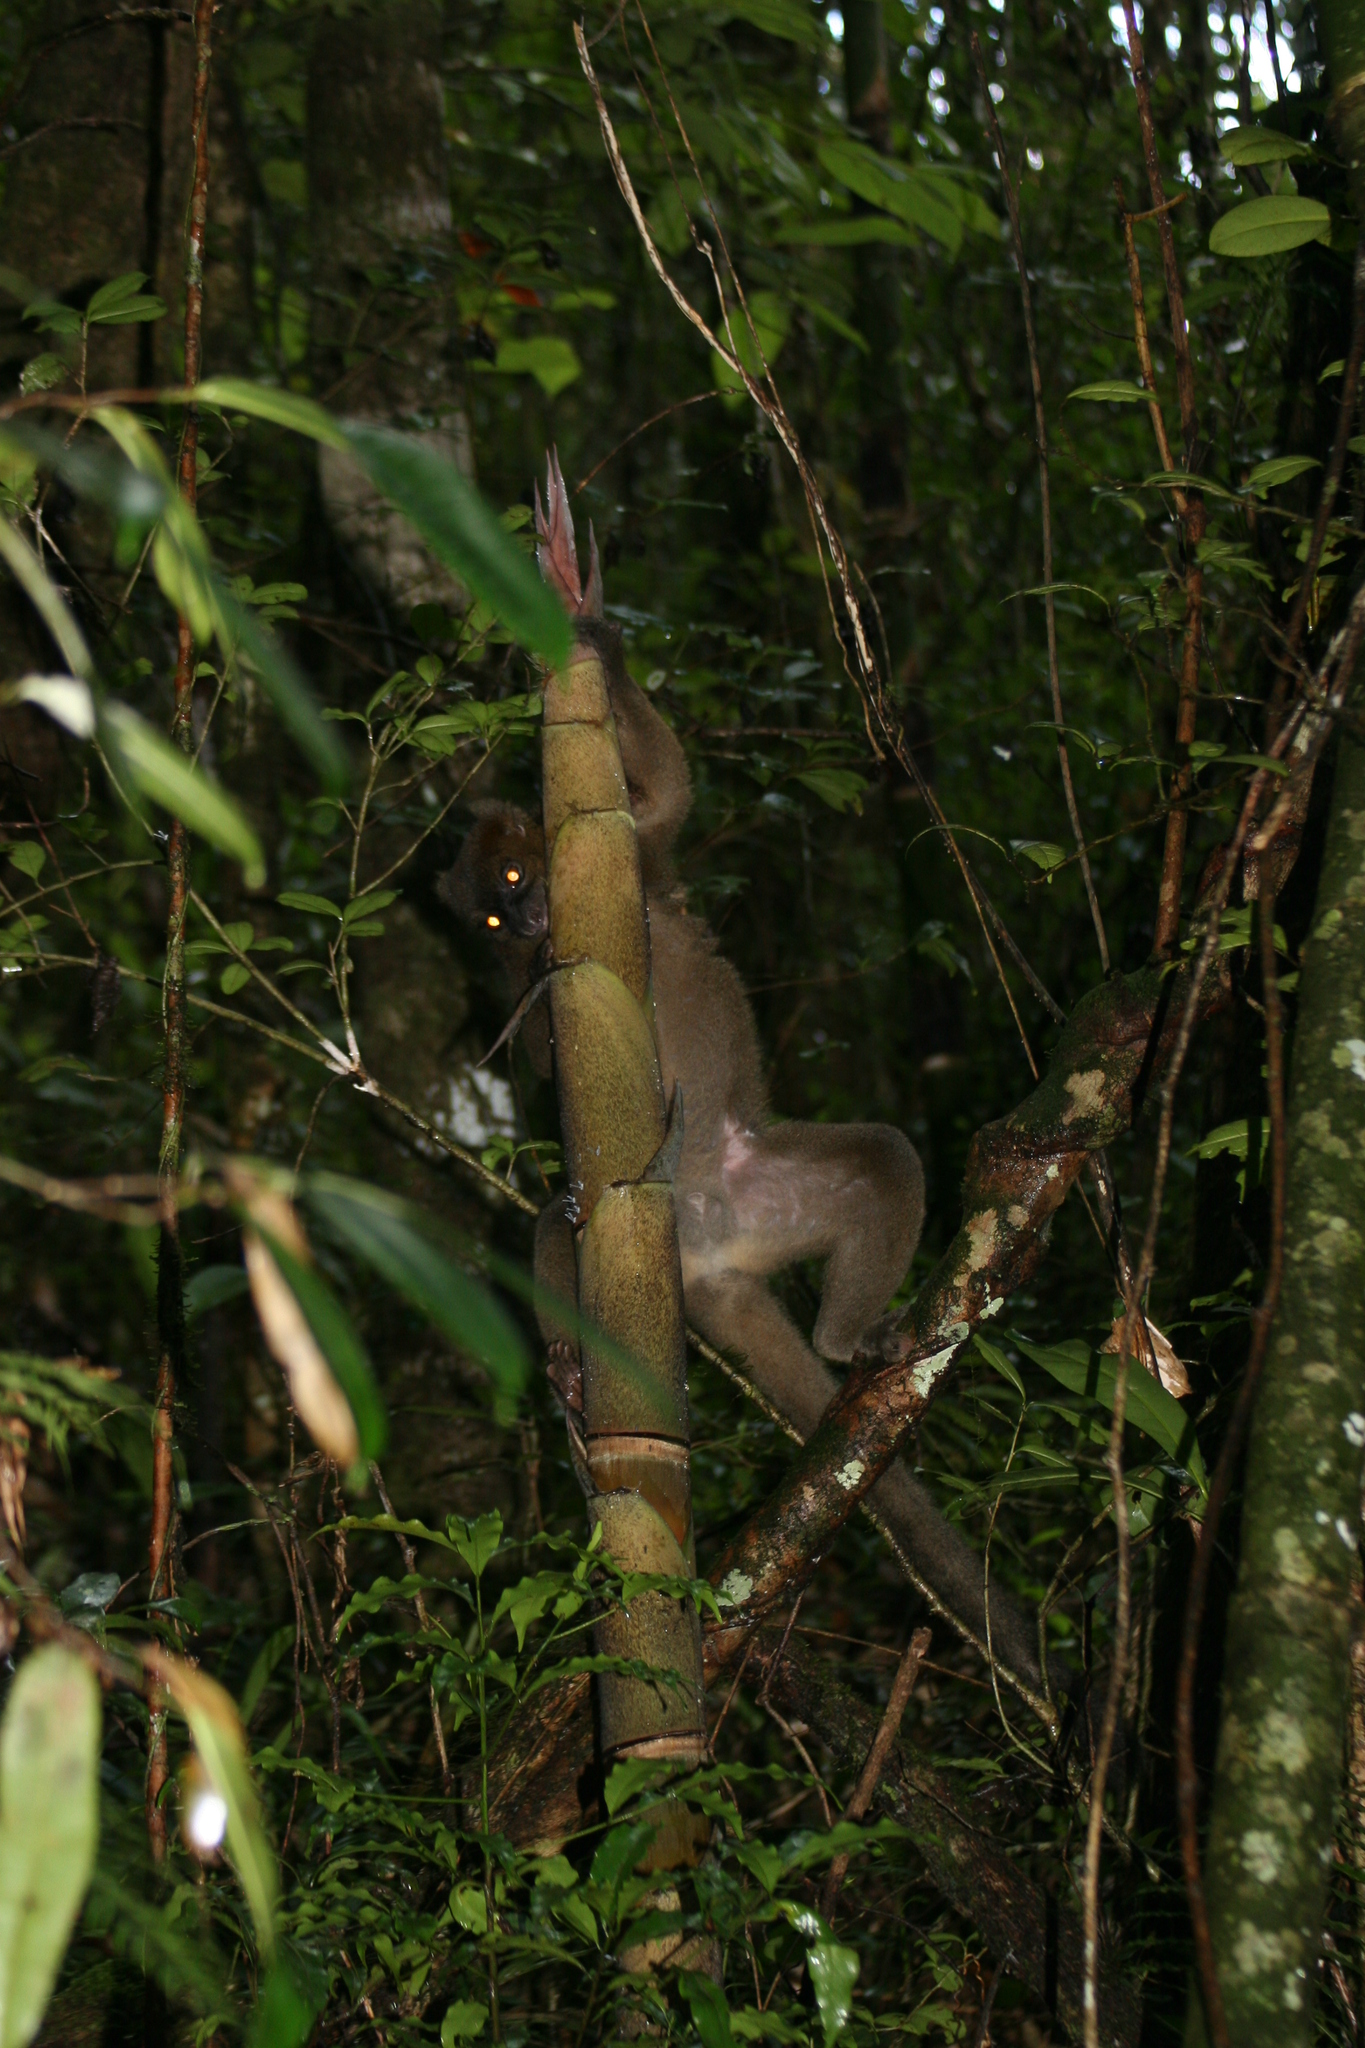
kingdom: Animalia
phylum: Chordata
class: Mammalia
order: Primates
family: Lemuridae
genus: Prolemur
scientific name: Prolemur simus
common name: Greater bamboo lemur
